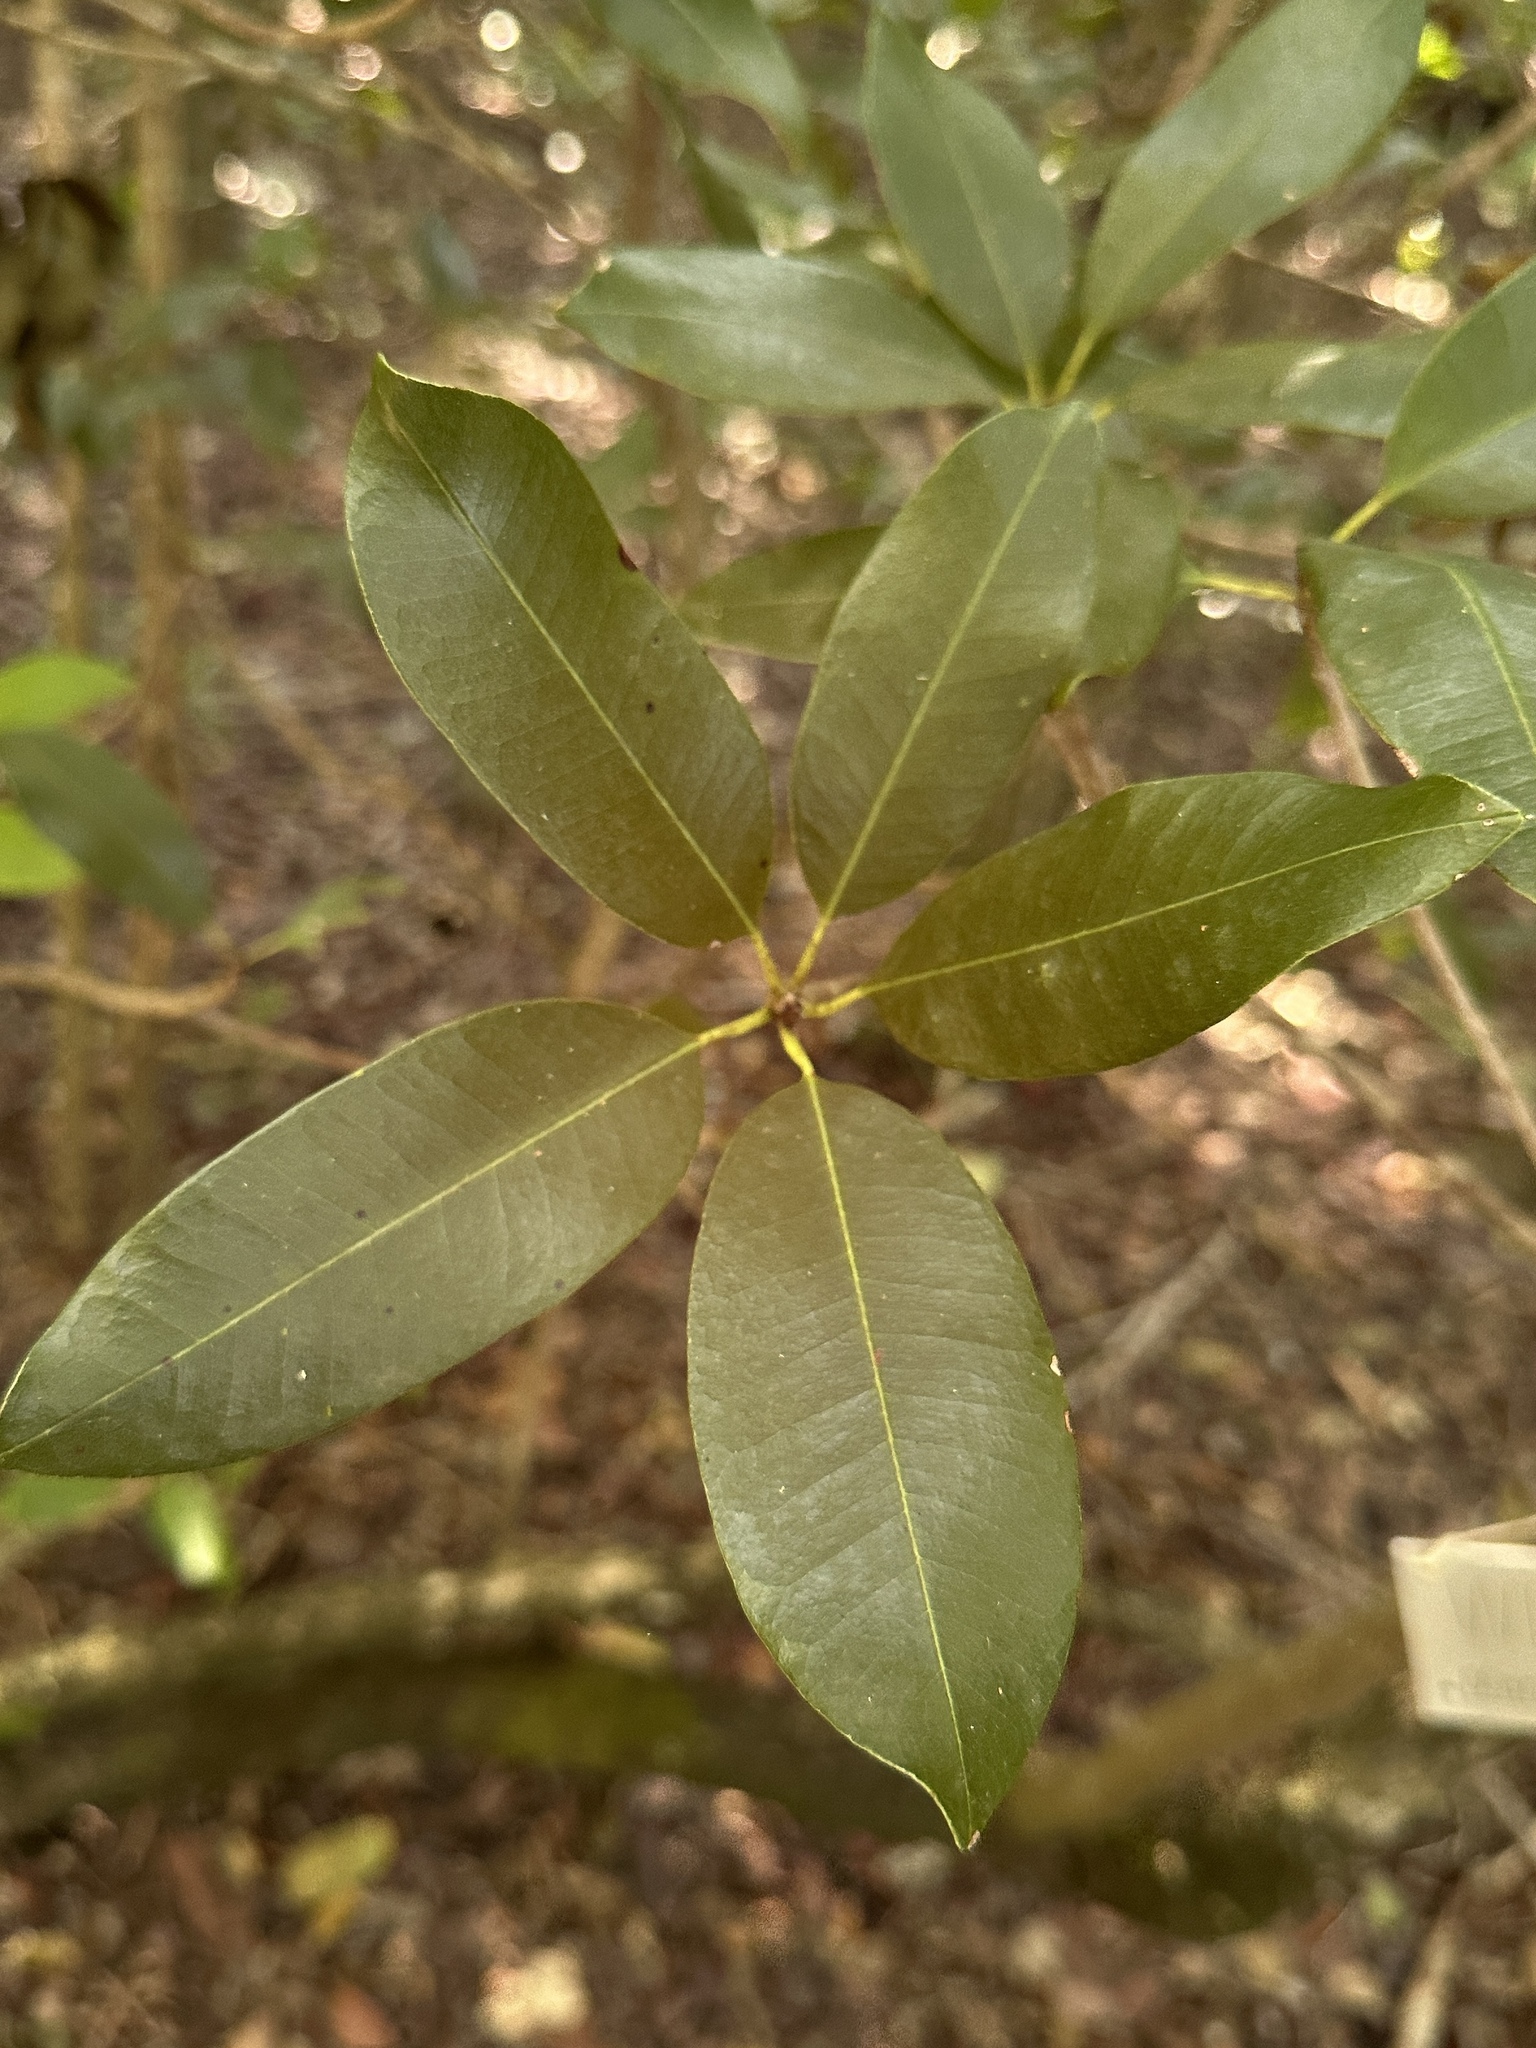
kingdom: Plantae
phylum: Tracheophyta
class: Magnoliopsida
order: Ericales
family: Sapotaceae
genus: Manilkara
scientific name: Manilkara jaimiqui
